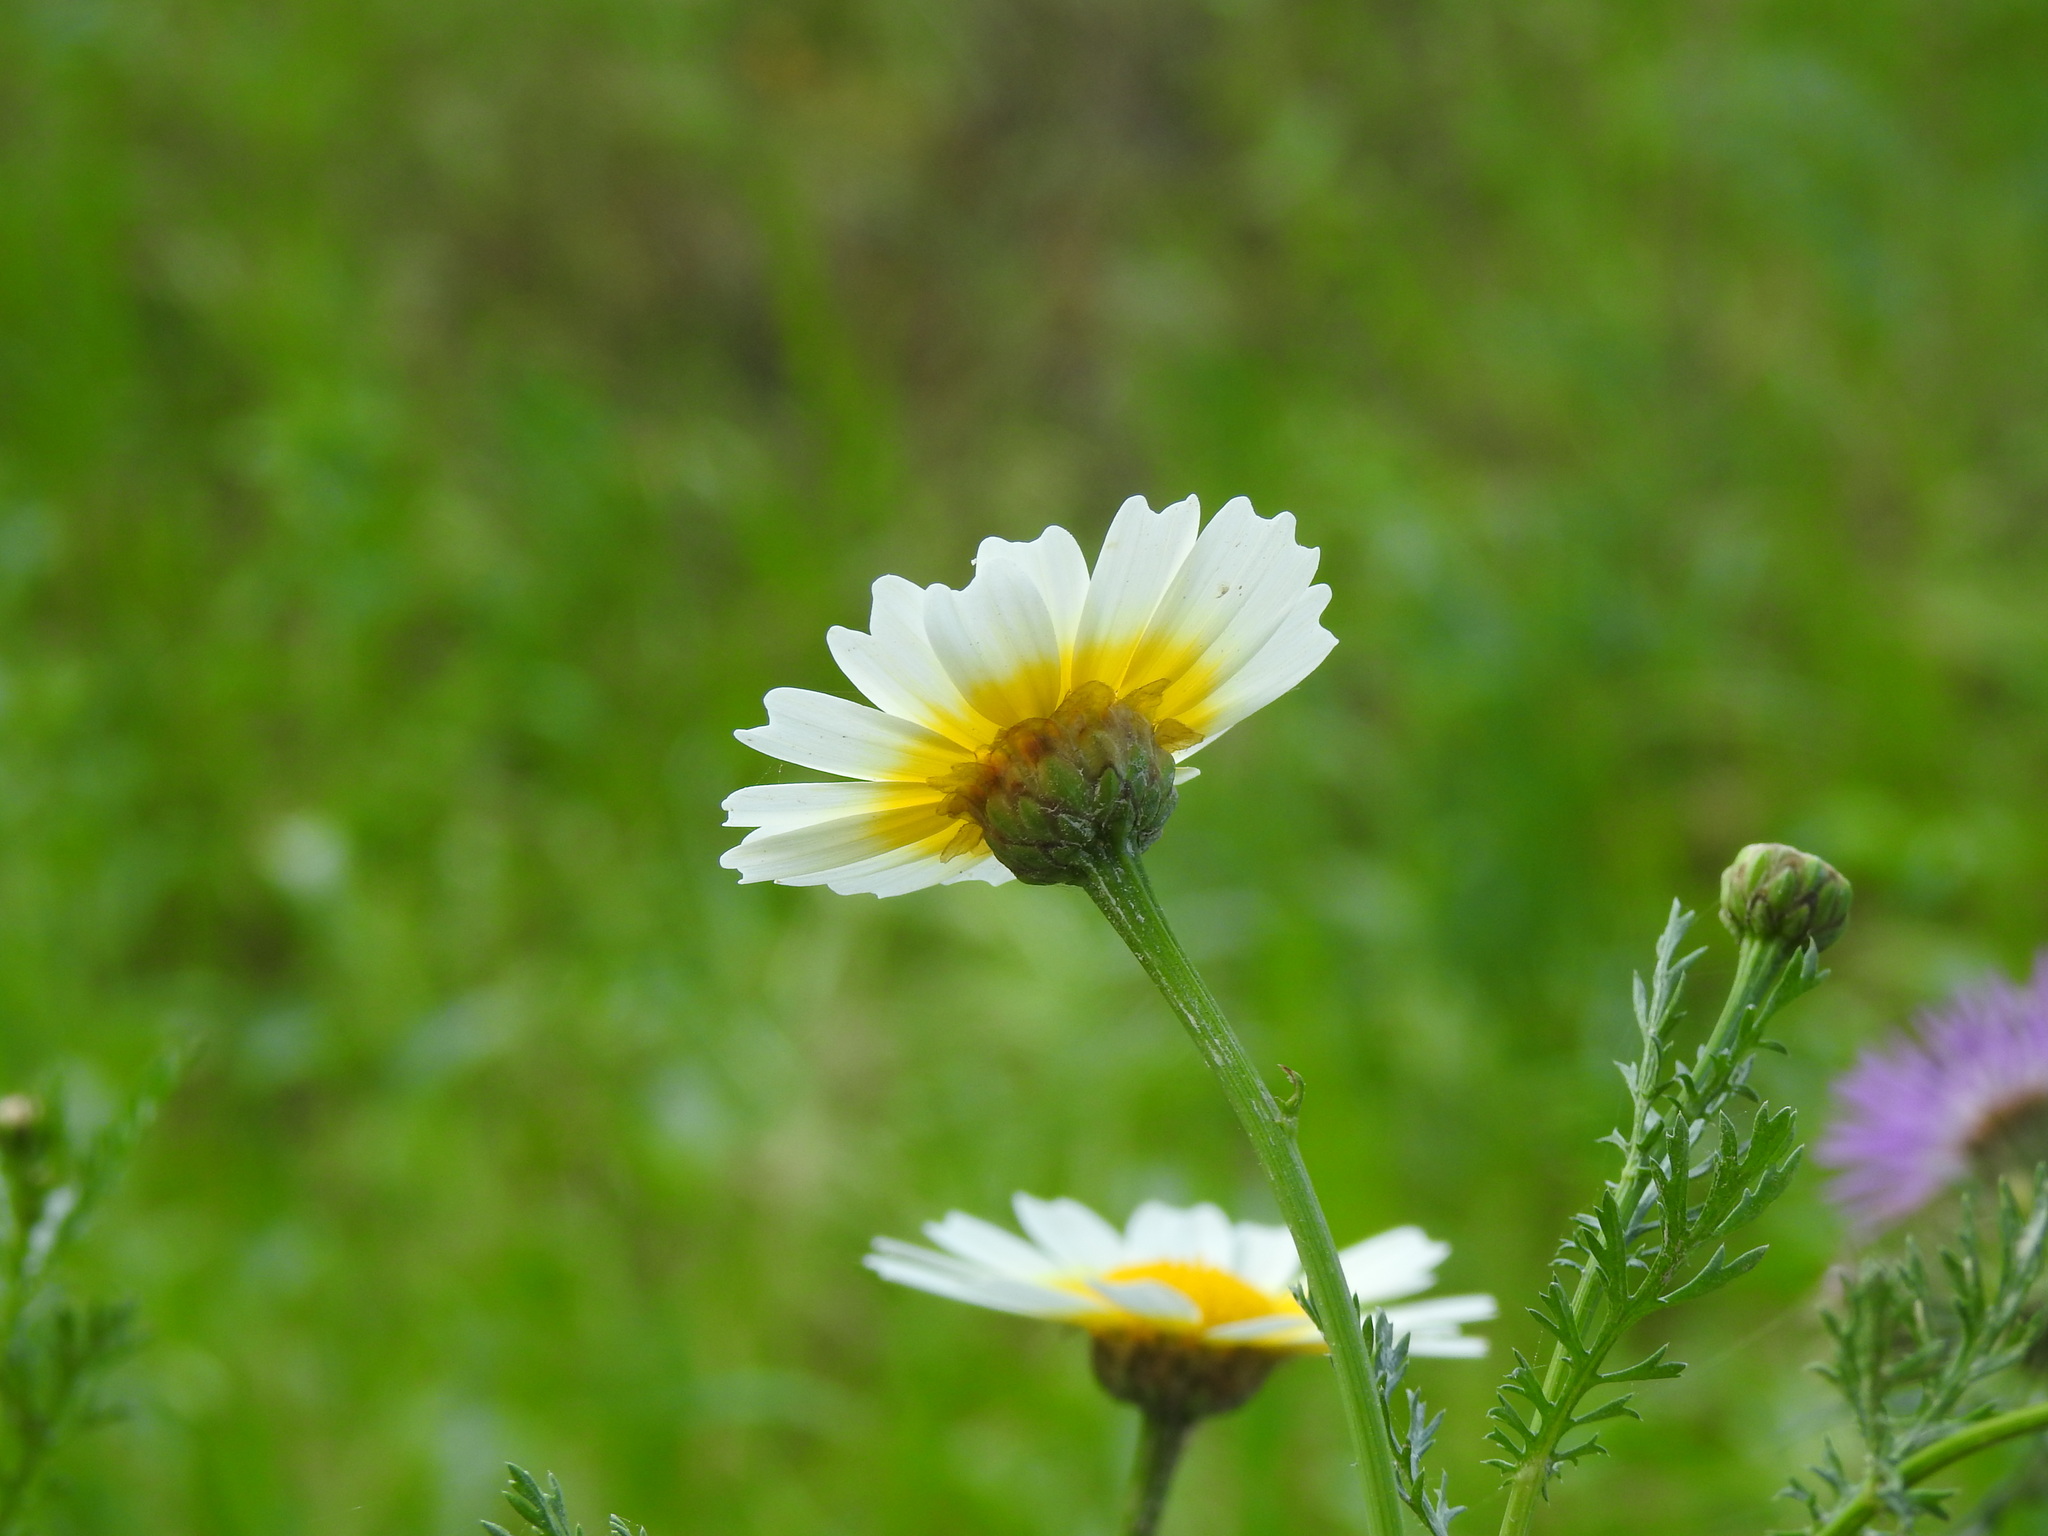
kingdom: Plantae
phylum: Tracheophyta
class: Magnoliopsida
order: Asterales
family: Asteraceae
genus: Glebionis
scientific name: Glebionis coronaria
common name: Crowndaisy
